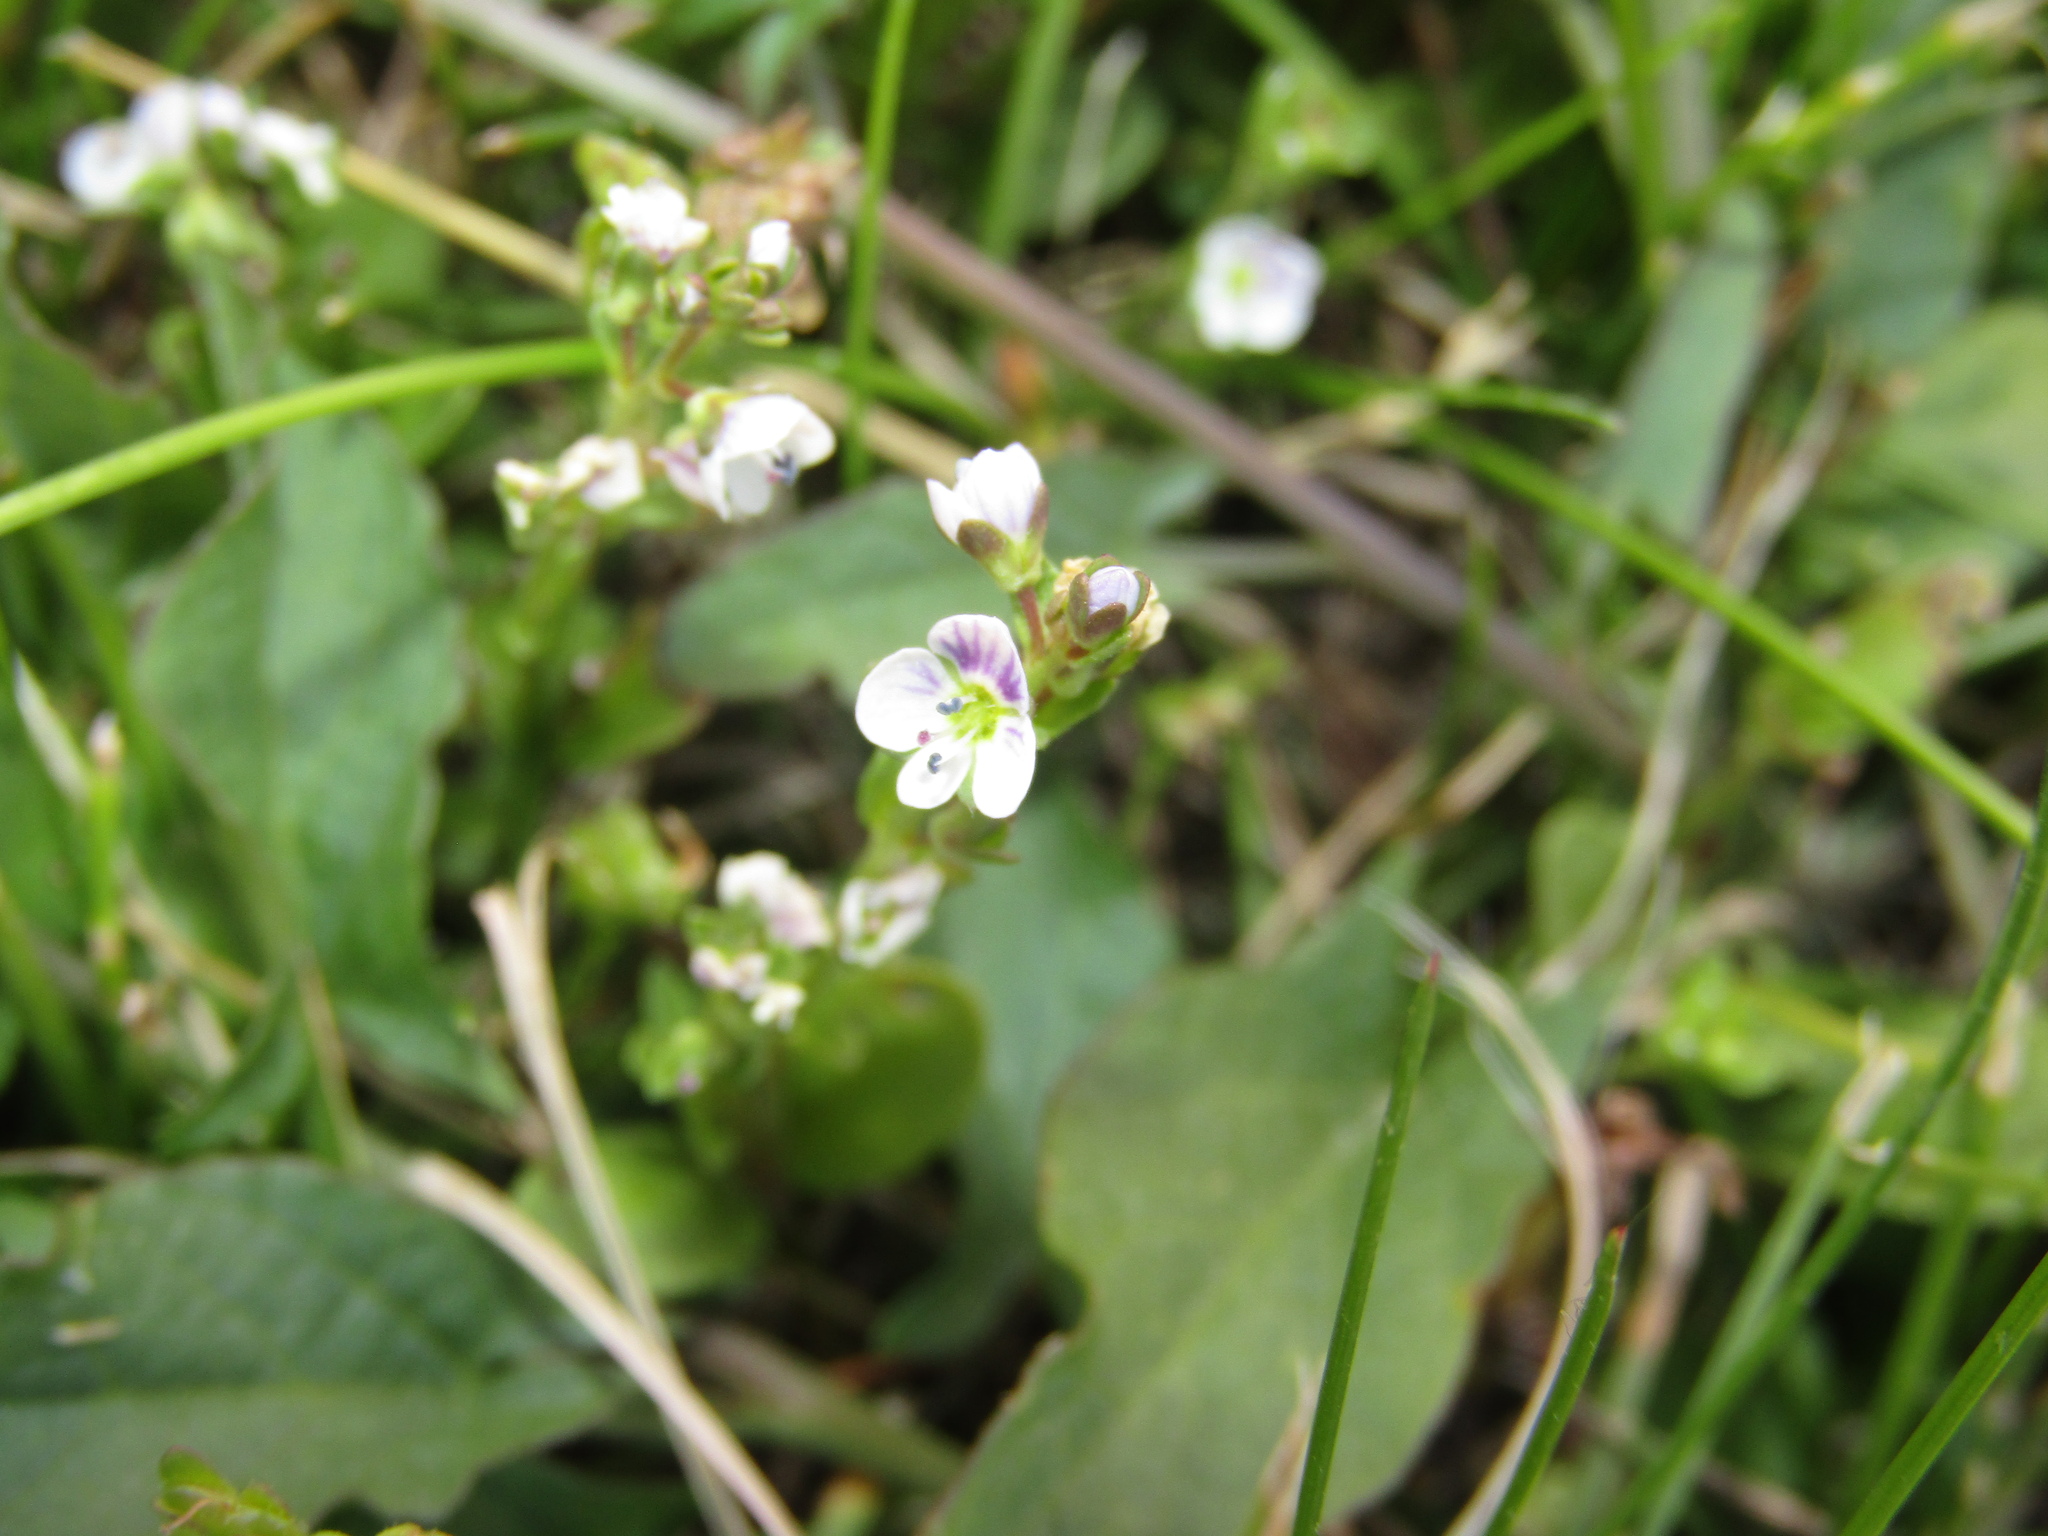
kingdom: Plantae
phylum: Tracheophyta
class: Magnoliopsida
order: Lamiales
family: Plantaginaceae
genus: Veronica
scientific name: Veronica serpyllifolia
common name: Thyme-leaved speedwell
